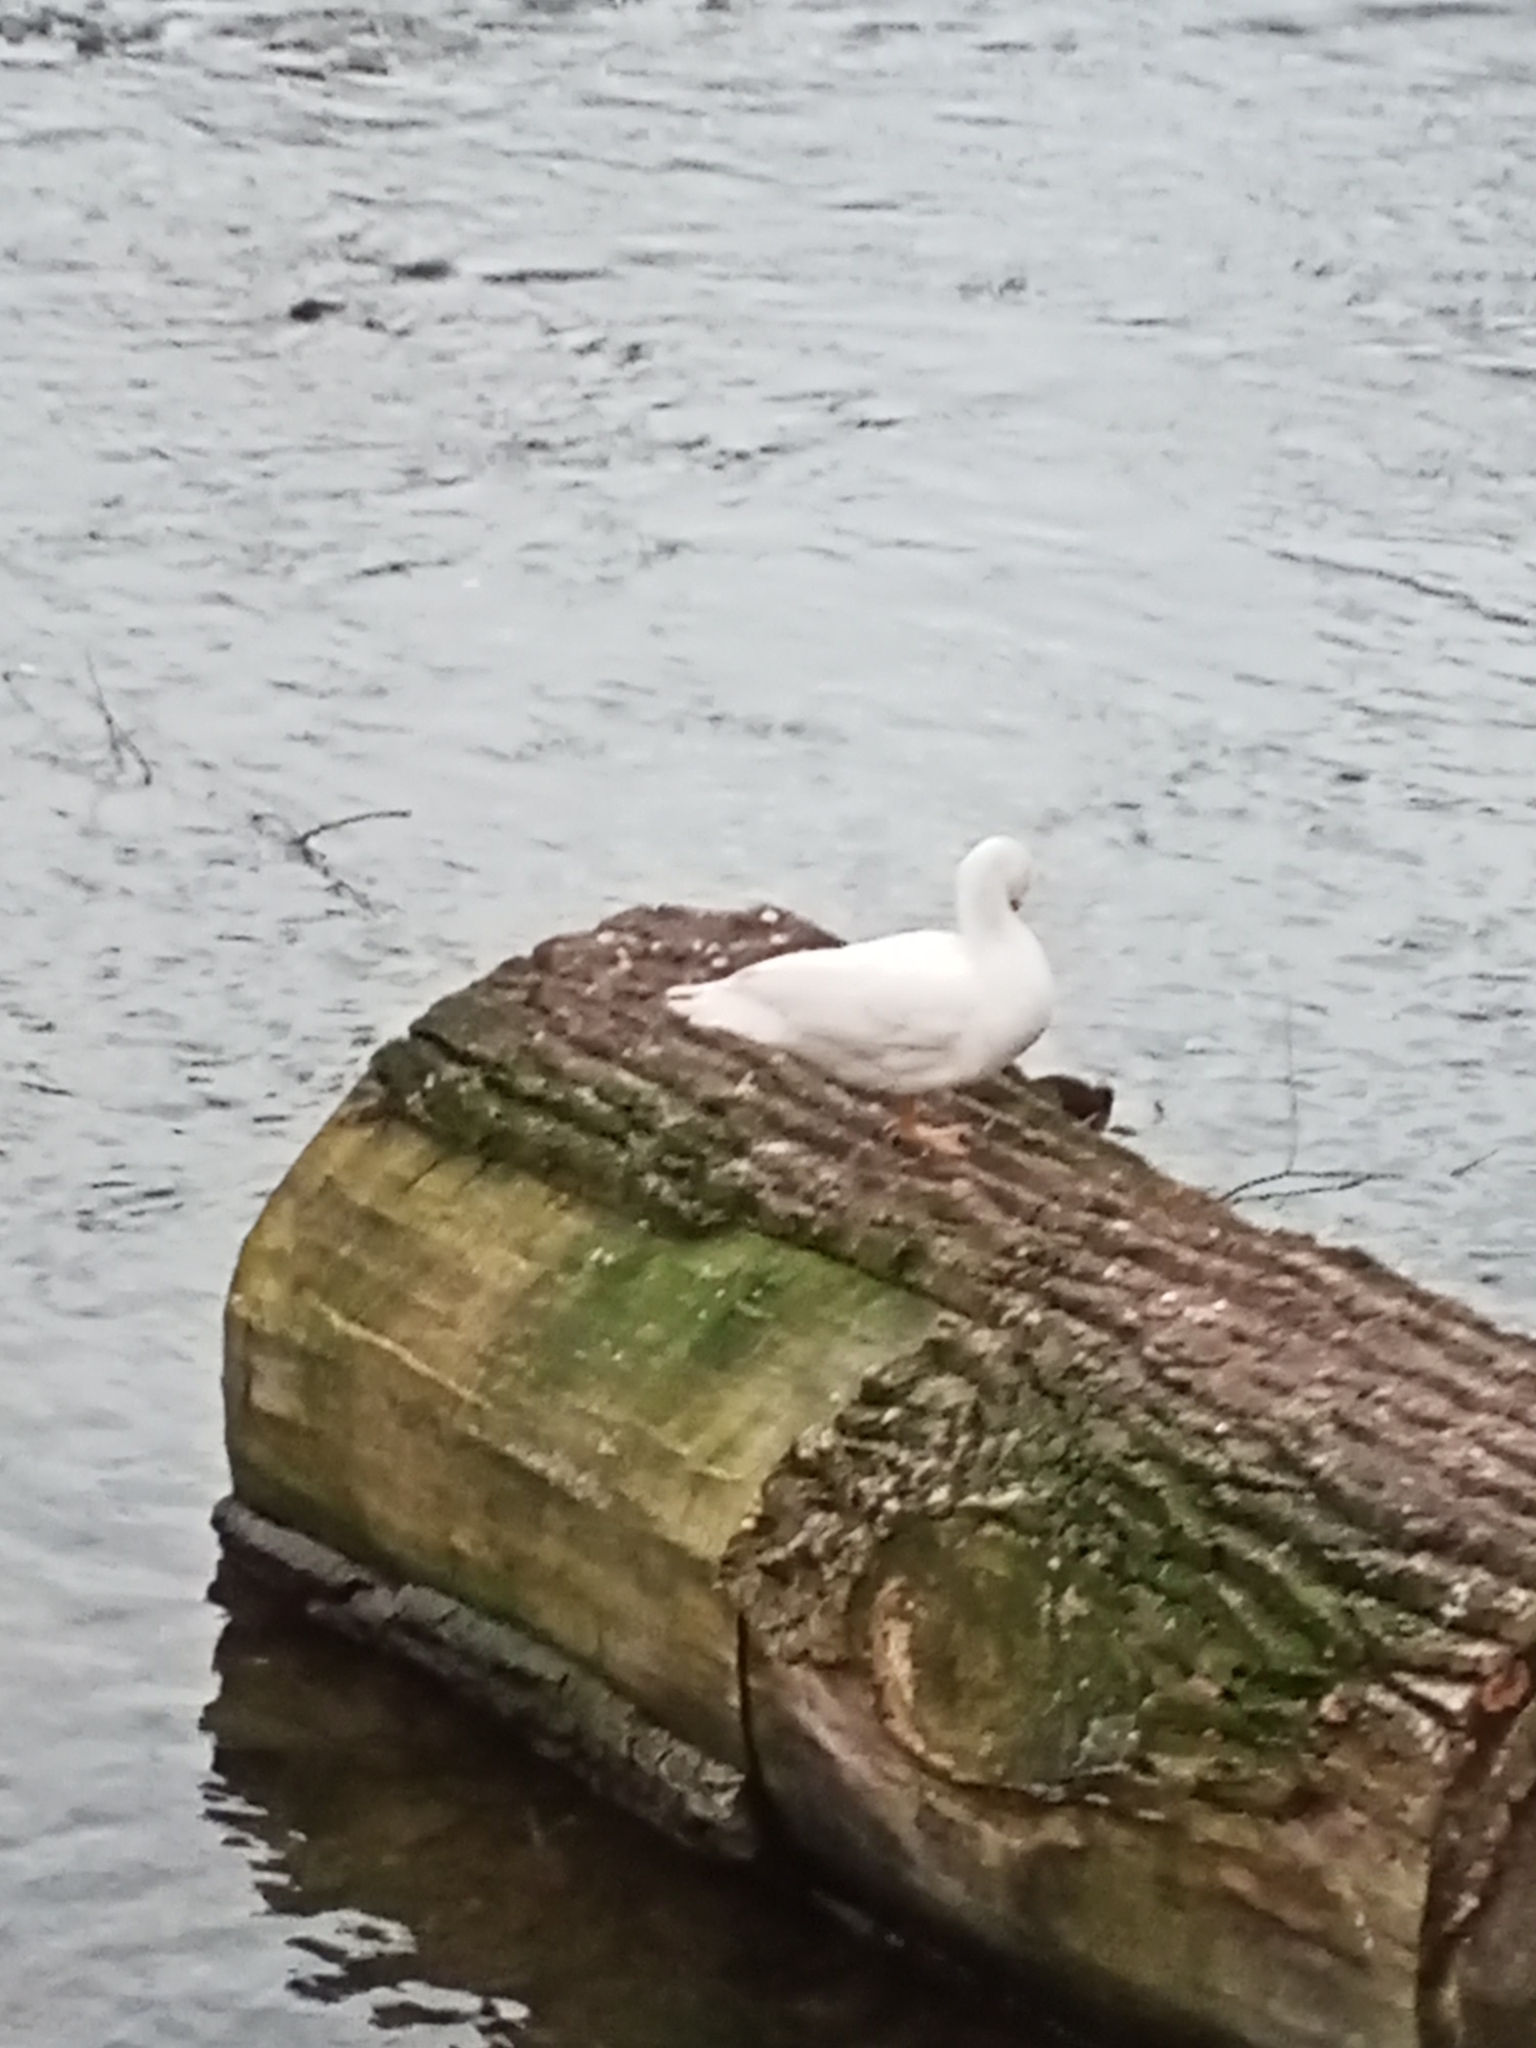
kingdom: Animalia
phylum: Chordata
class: Aves
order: Anseriformes
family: Anatidae
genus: Cairina
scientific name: Cairina moschata
